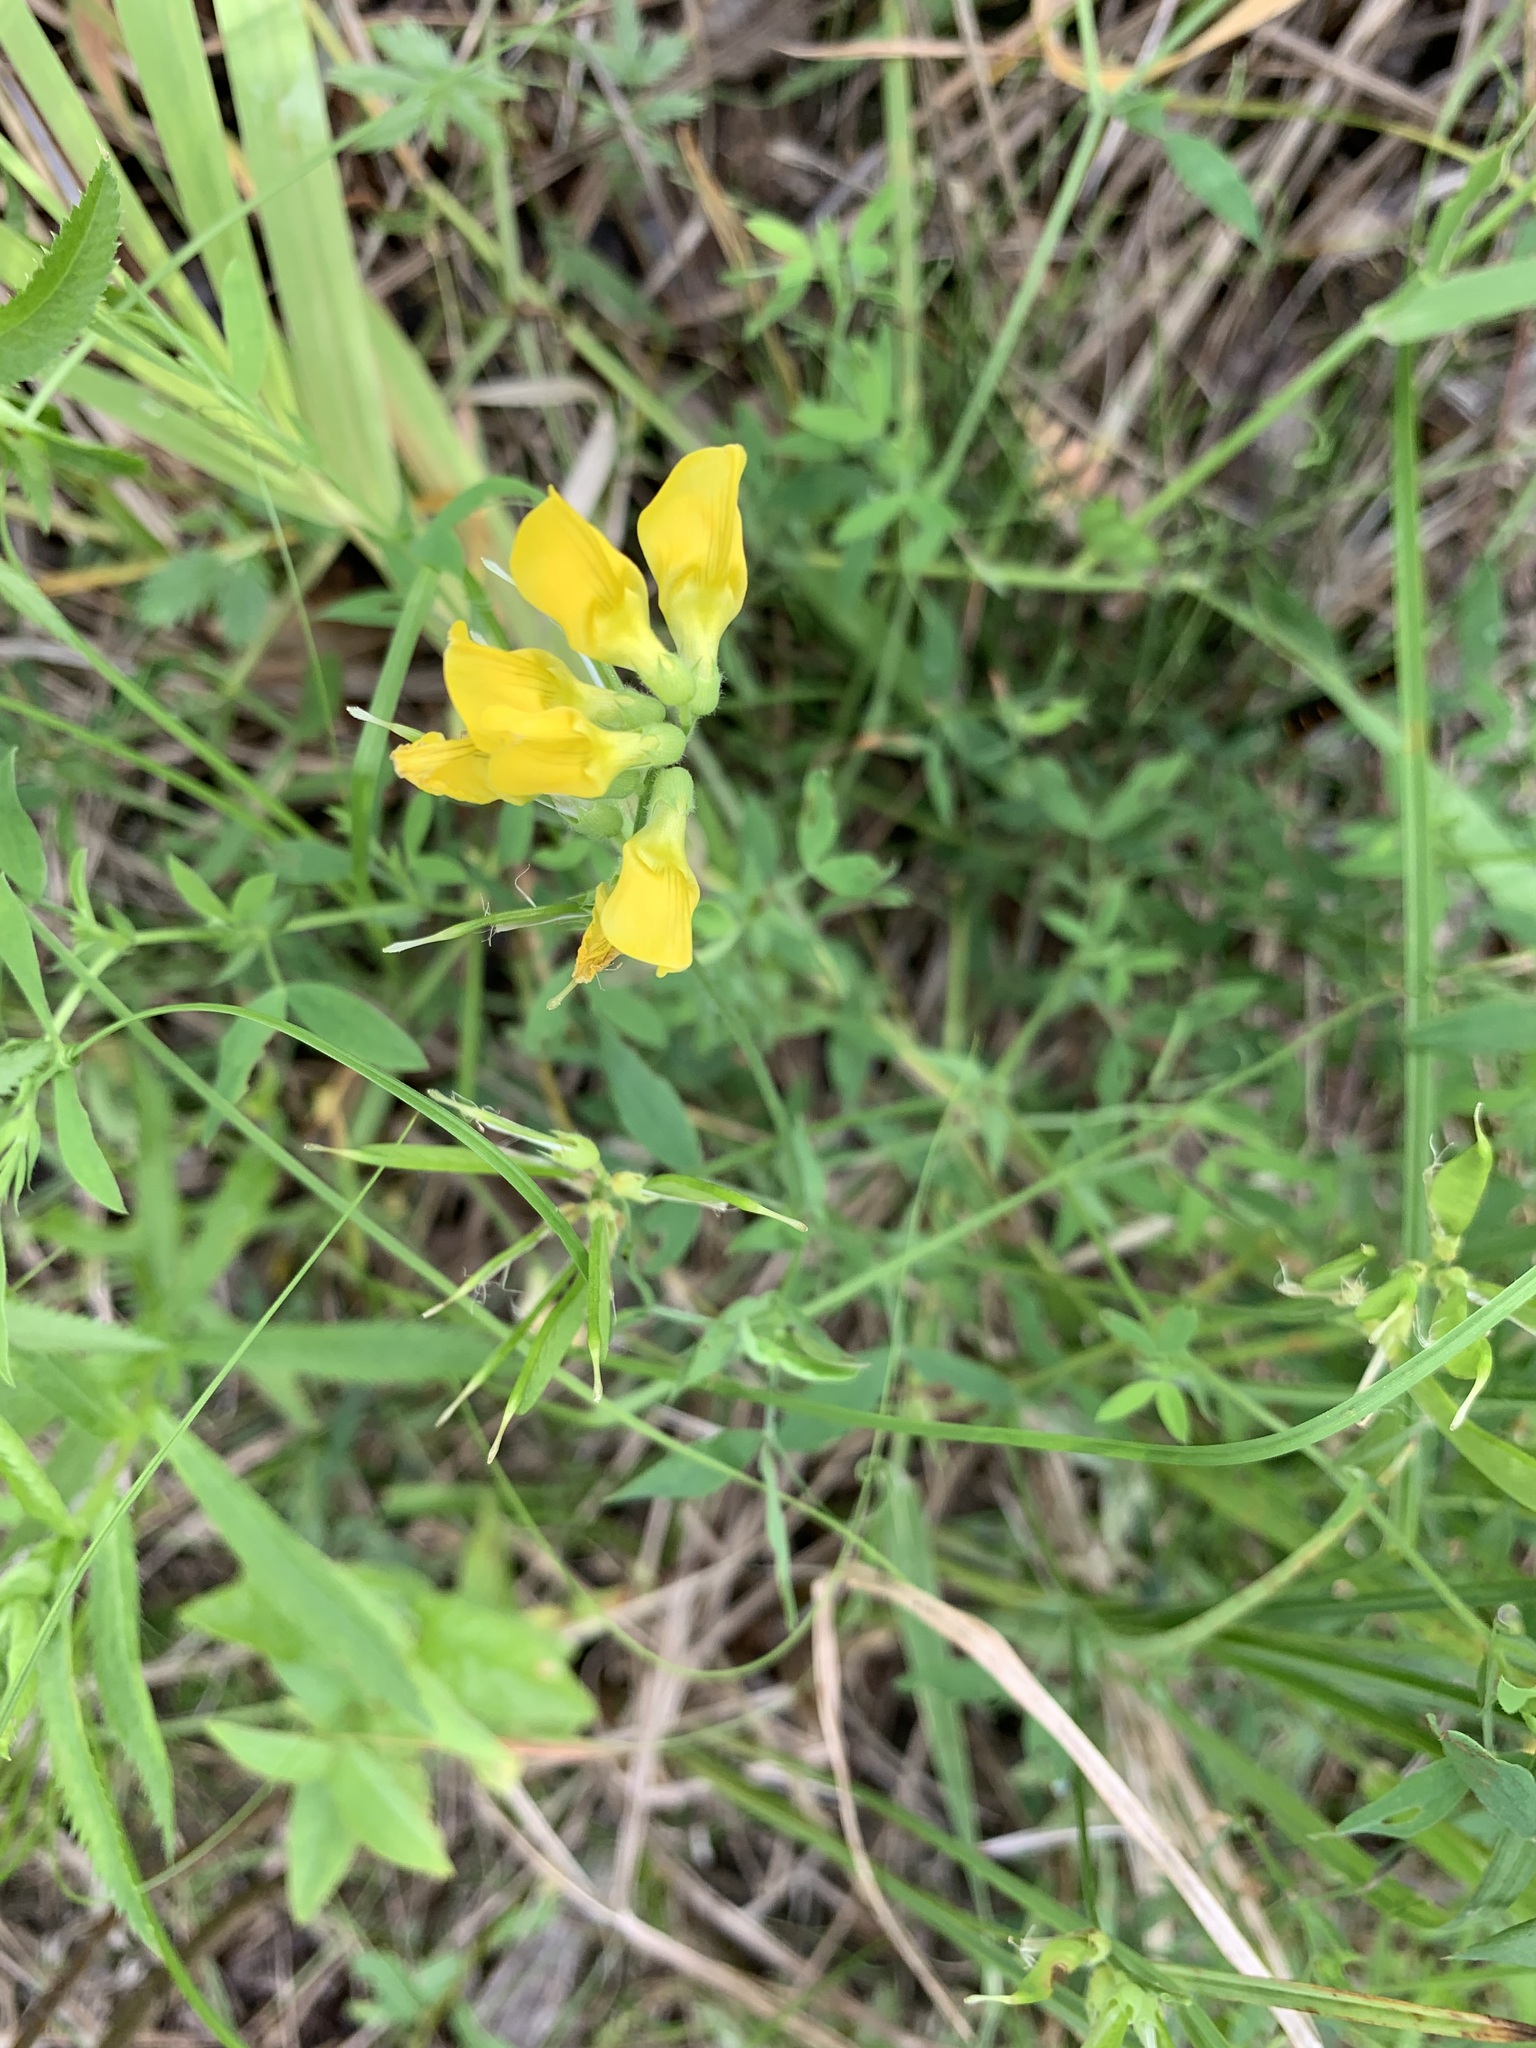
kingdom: Plantae
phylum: Tracheophyta
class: Magnoliopsida
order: Fabales
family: Fabaceae
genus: Lathyrus
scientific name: Lathyrus pratensis
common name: Meadow vetchling
